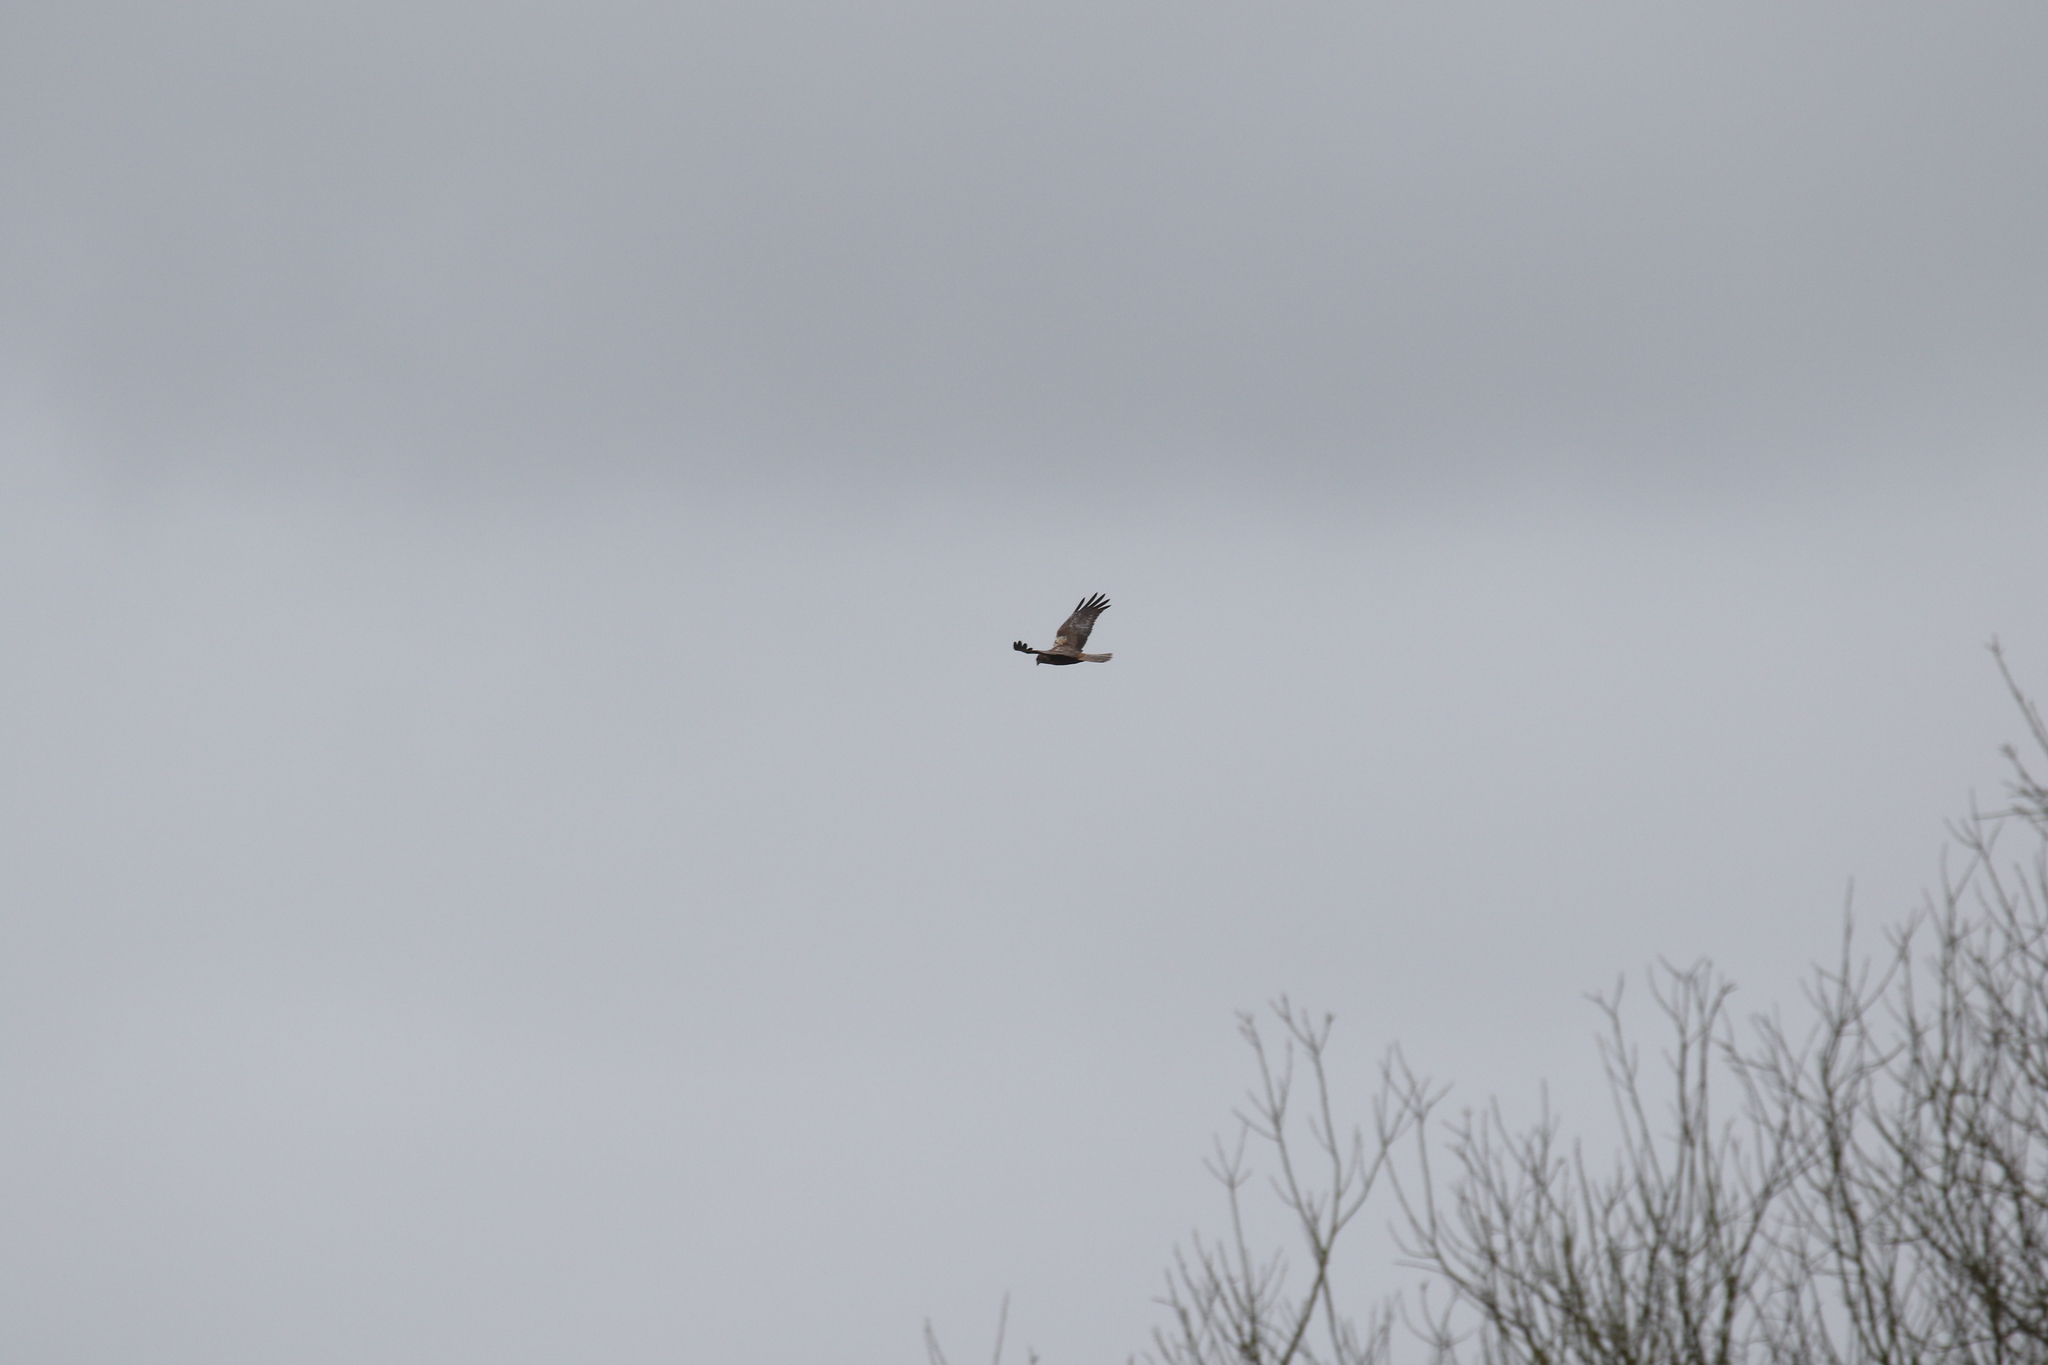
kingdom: Animalia
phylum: Chordata
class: Aves
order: Accipitriformes
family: Accipitridae
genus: Circus
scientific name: Circus aeruginosus
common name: Western marsh harrier
